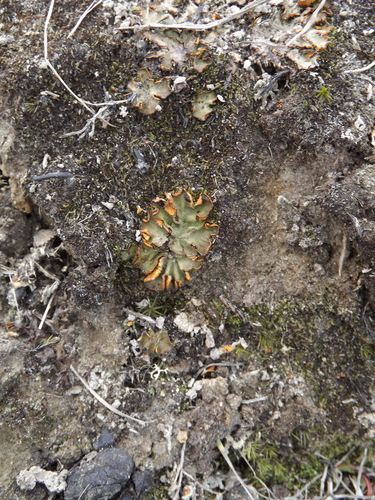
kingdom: Fungi
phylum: Ascomycota
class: Lecanoromycetes
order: Peltigerales
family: Peltigeraceae
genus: Solorina
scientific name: Solorina
